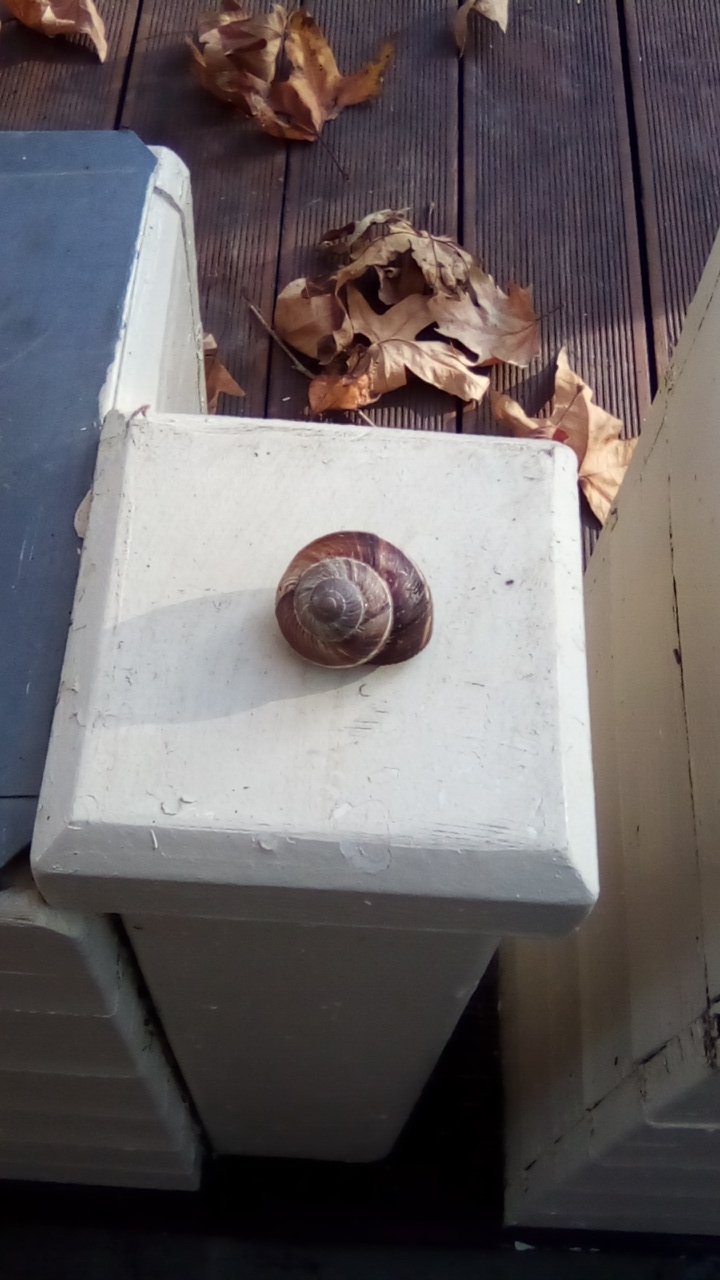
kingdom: Animalia
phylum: Mollusca
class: Gastropoda
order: Stylommatophora
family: Helicidae
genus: Helix
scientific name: Helix lucorum
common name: Turkish snail
